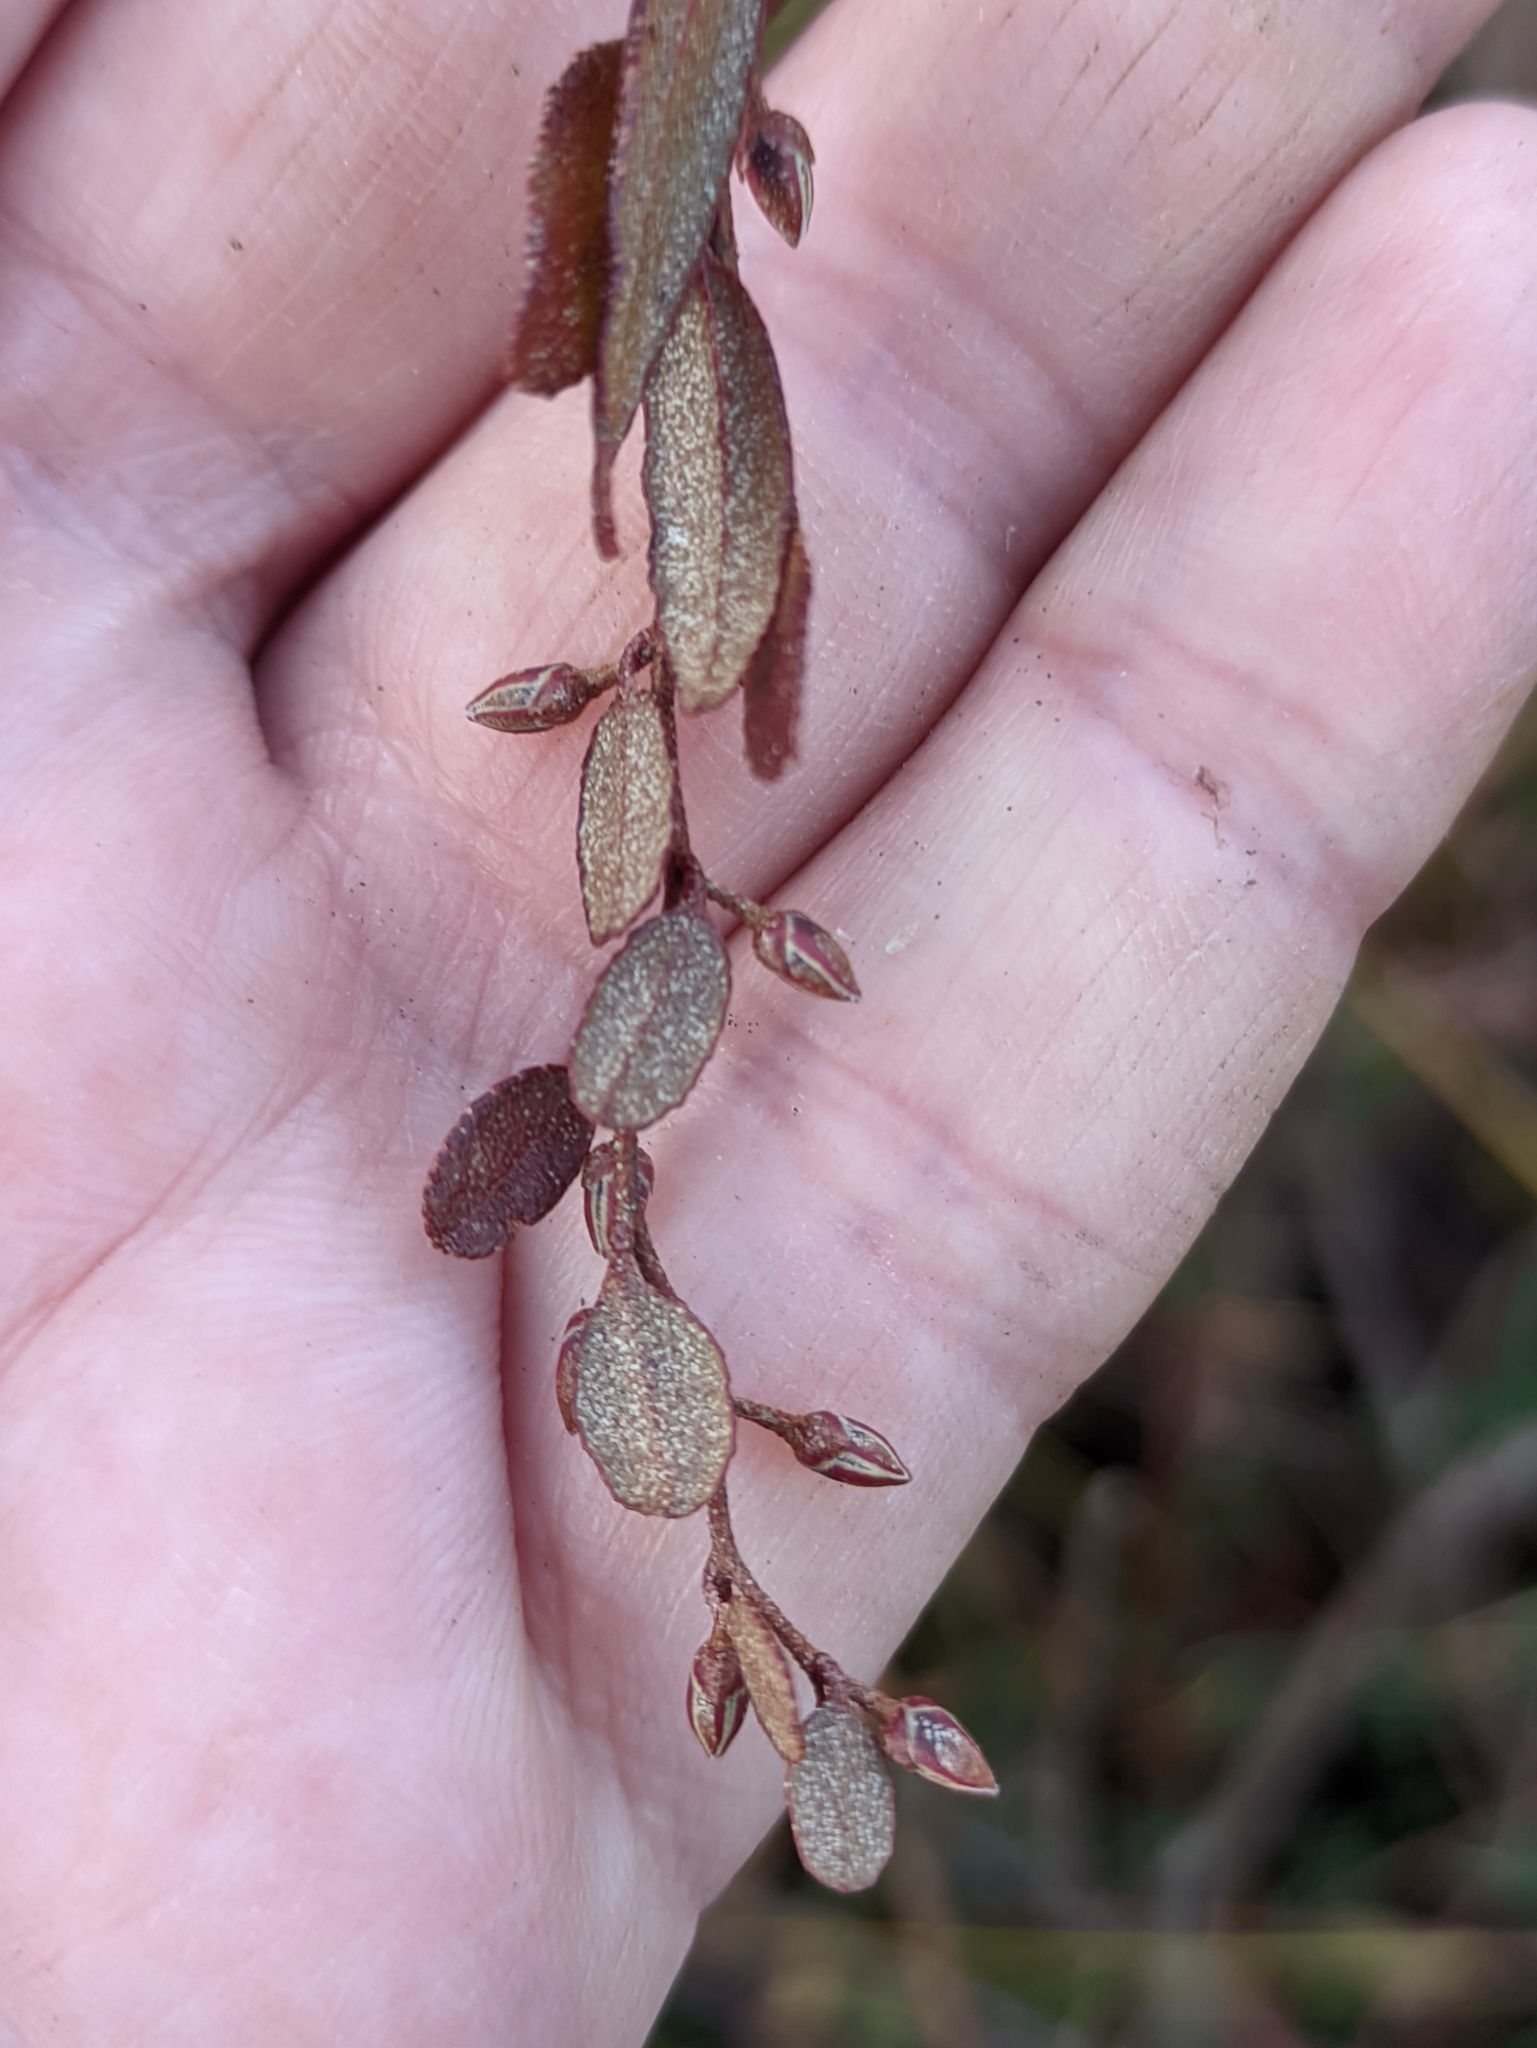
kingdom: Plantae
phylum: Tracheophyta
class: Magnoliopsida
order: Ericales
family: Ericaceae
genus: Chamaedaphne
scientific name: Chamaedaphne calyculata
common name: Leatherleaf
